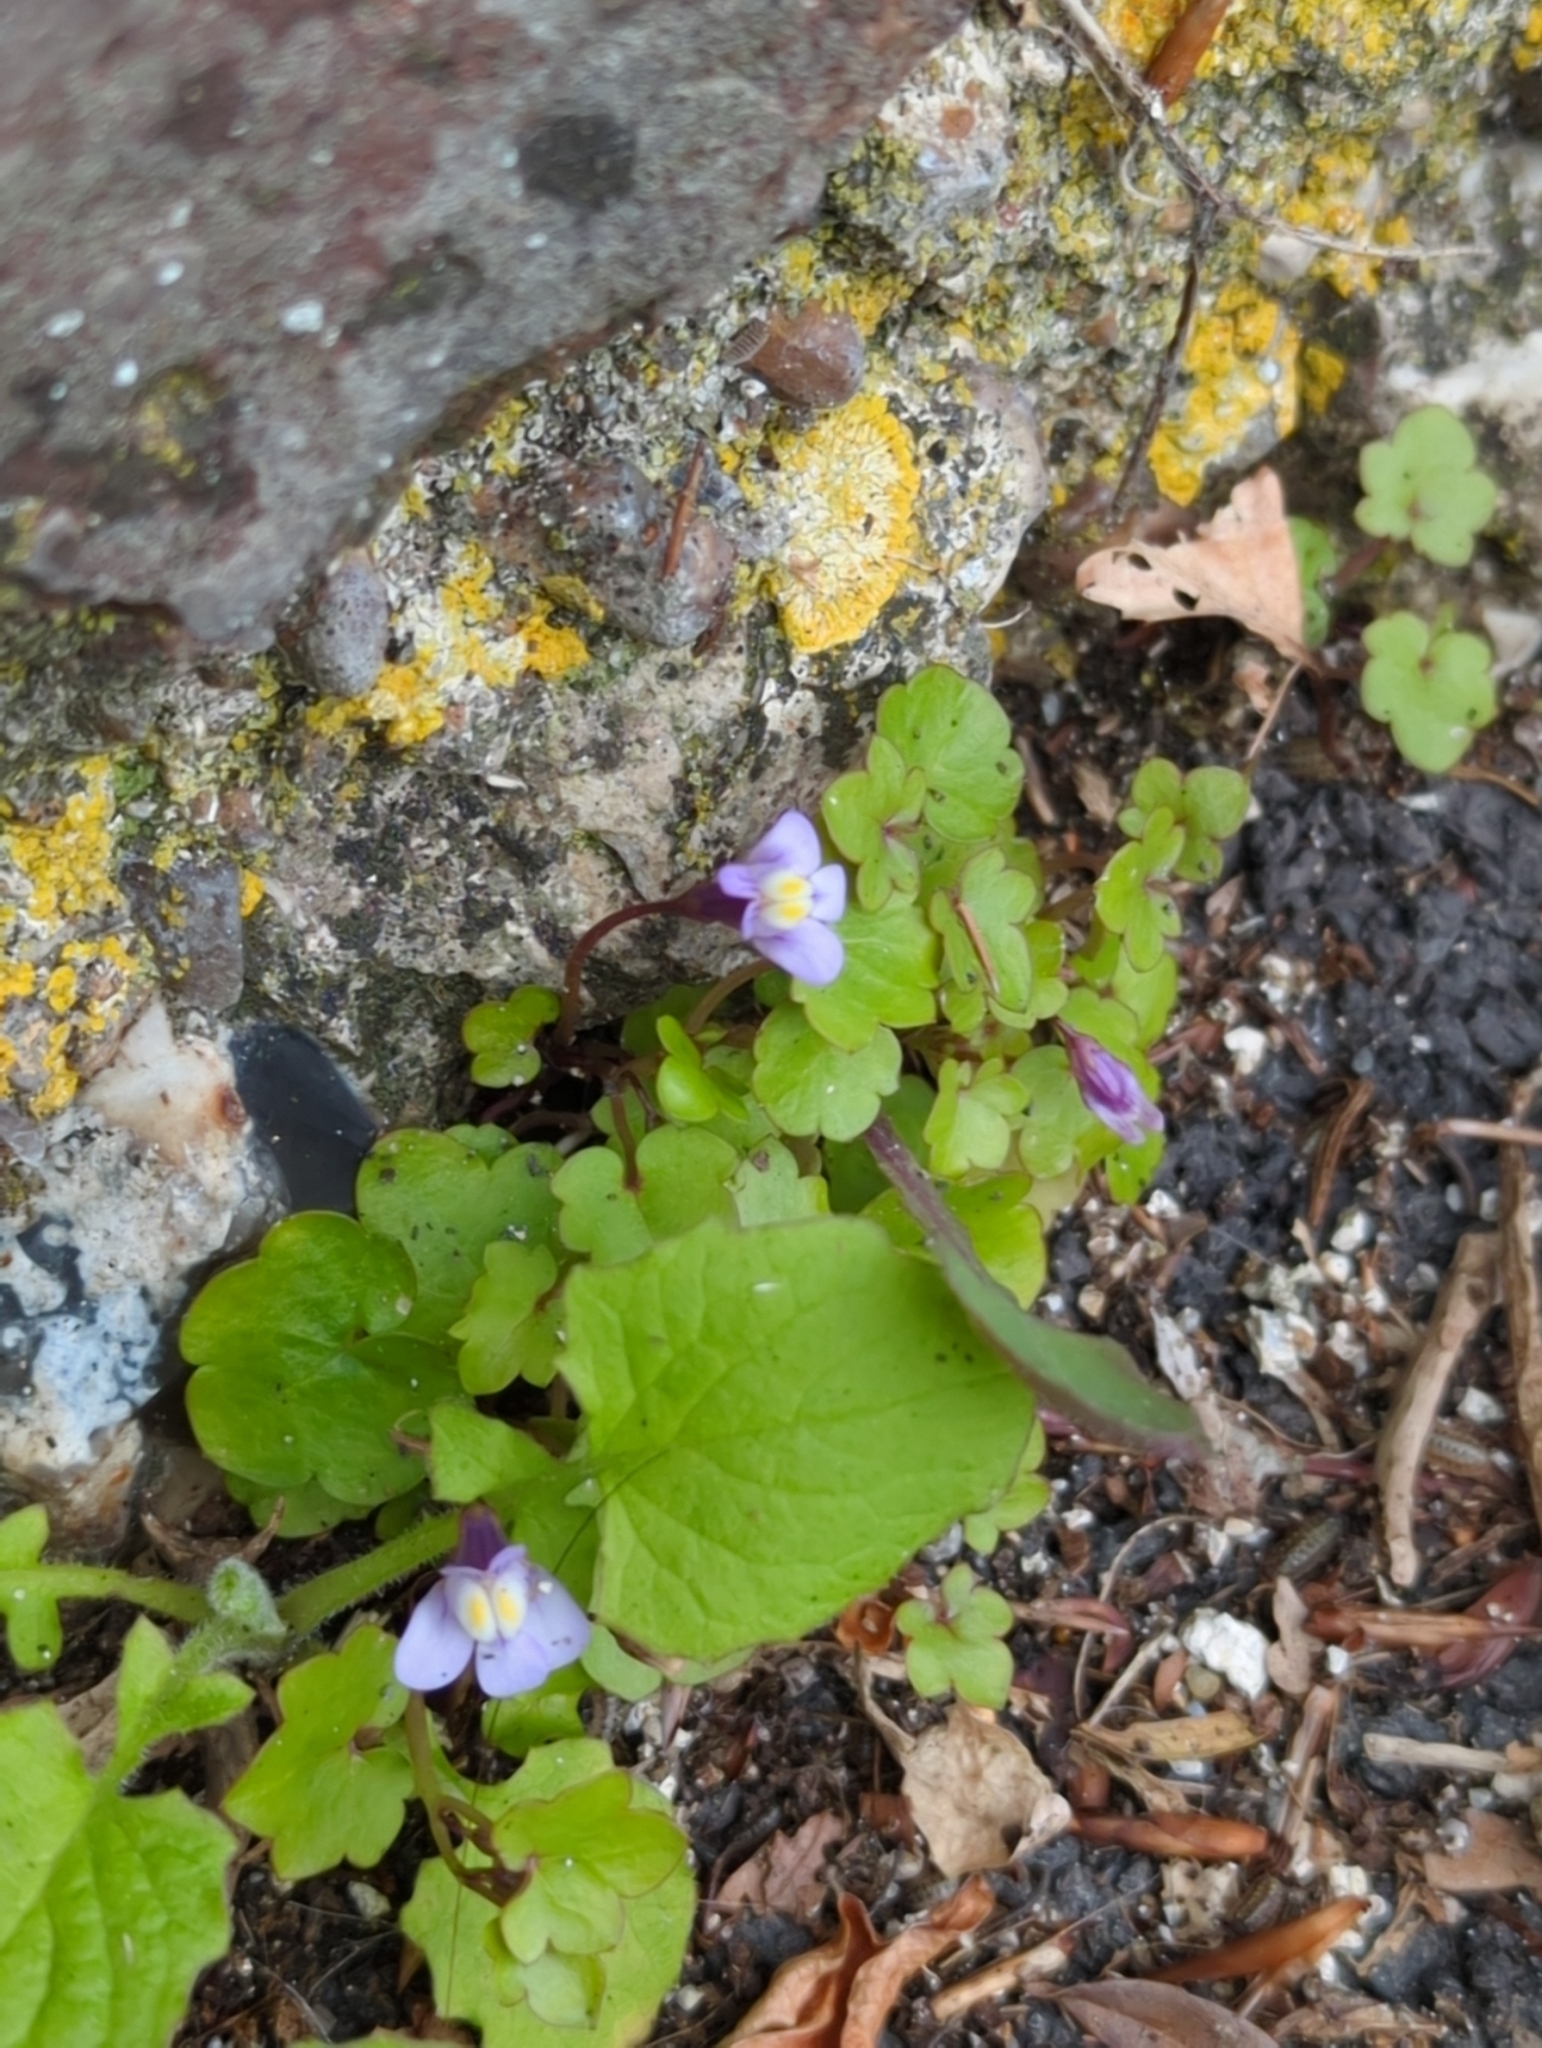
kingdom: Plantae
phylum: Tracheophyta
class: Magnoliopsida
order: Lamiales
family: Plantaginaceae
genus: Cymbalaria
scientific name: Cymbalaria muralis
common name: Ivy-leaved toadflax
